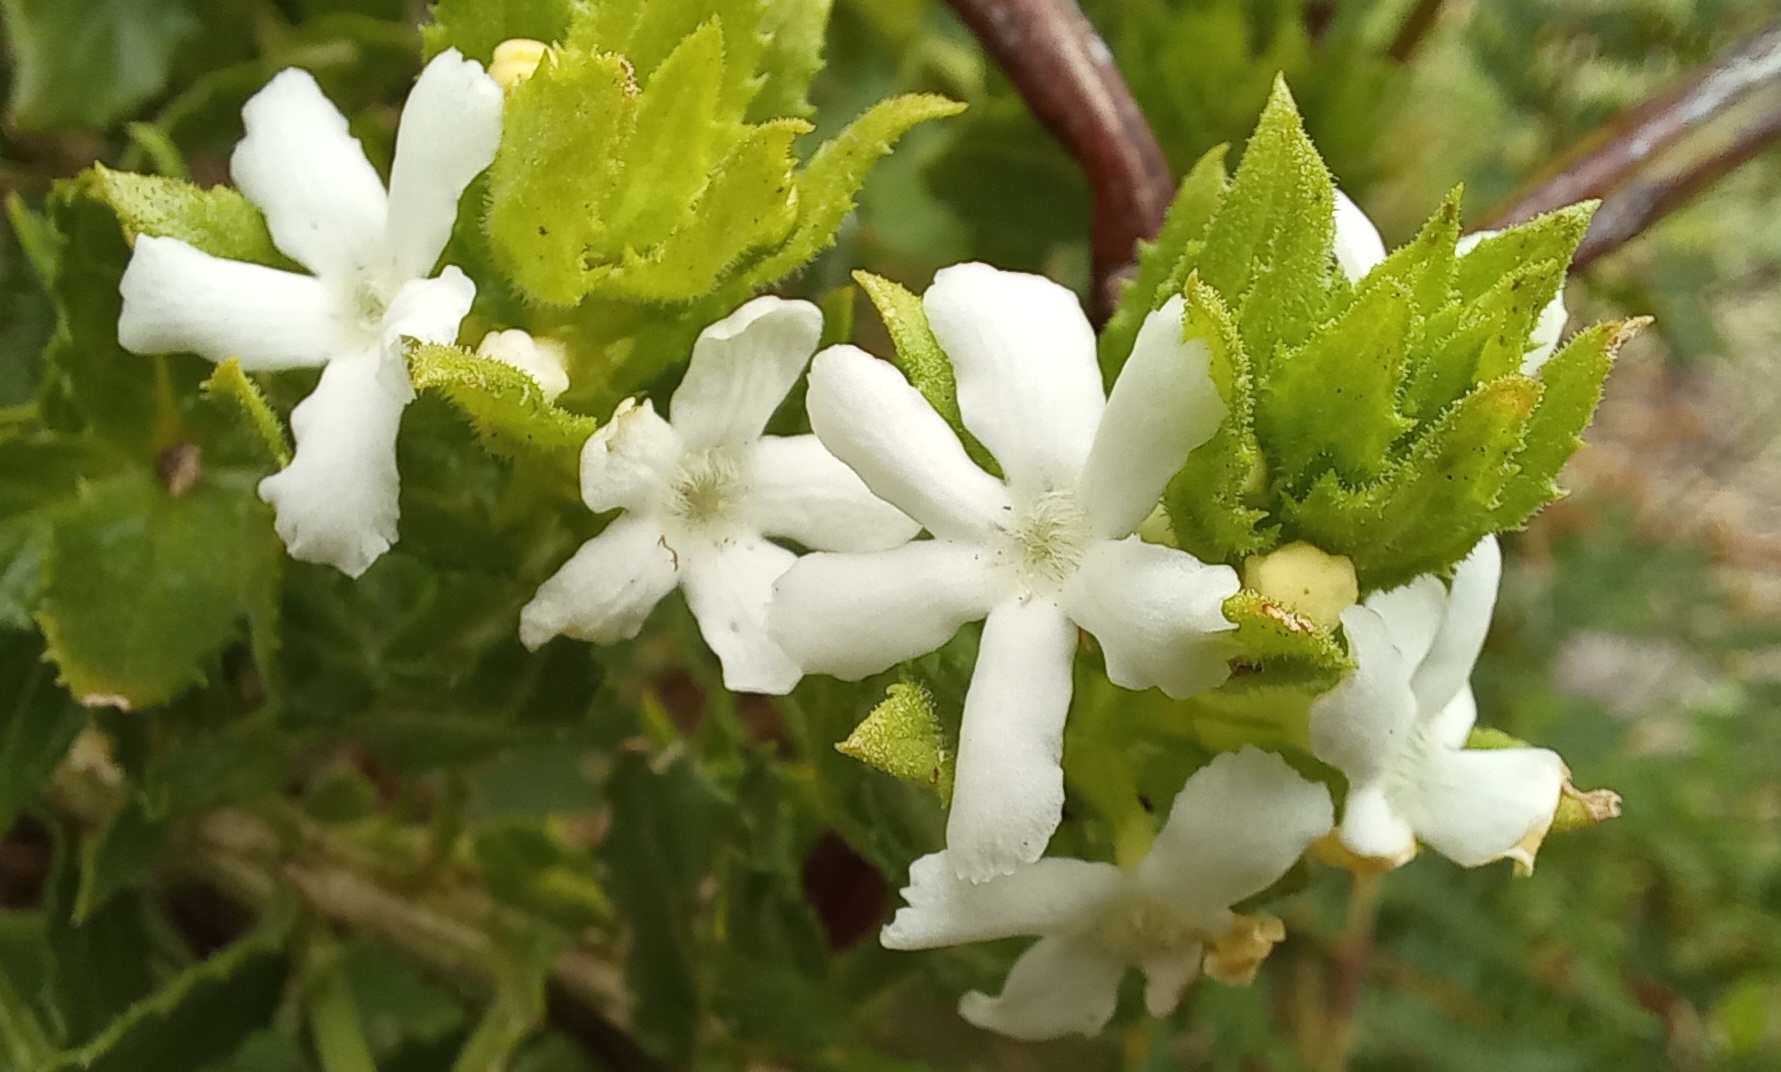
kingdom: Plantae
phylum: Tracheophyta
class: Magnoliopsida
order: Lamiales
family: Scrophulariaceae
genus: Oftia
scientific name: Oftia africana
